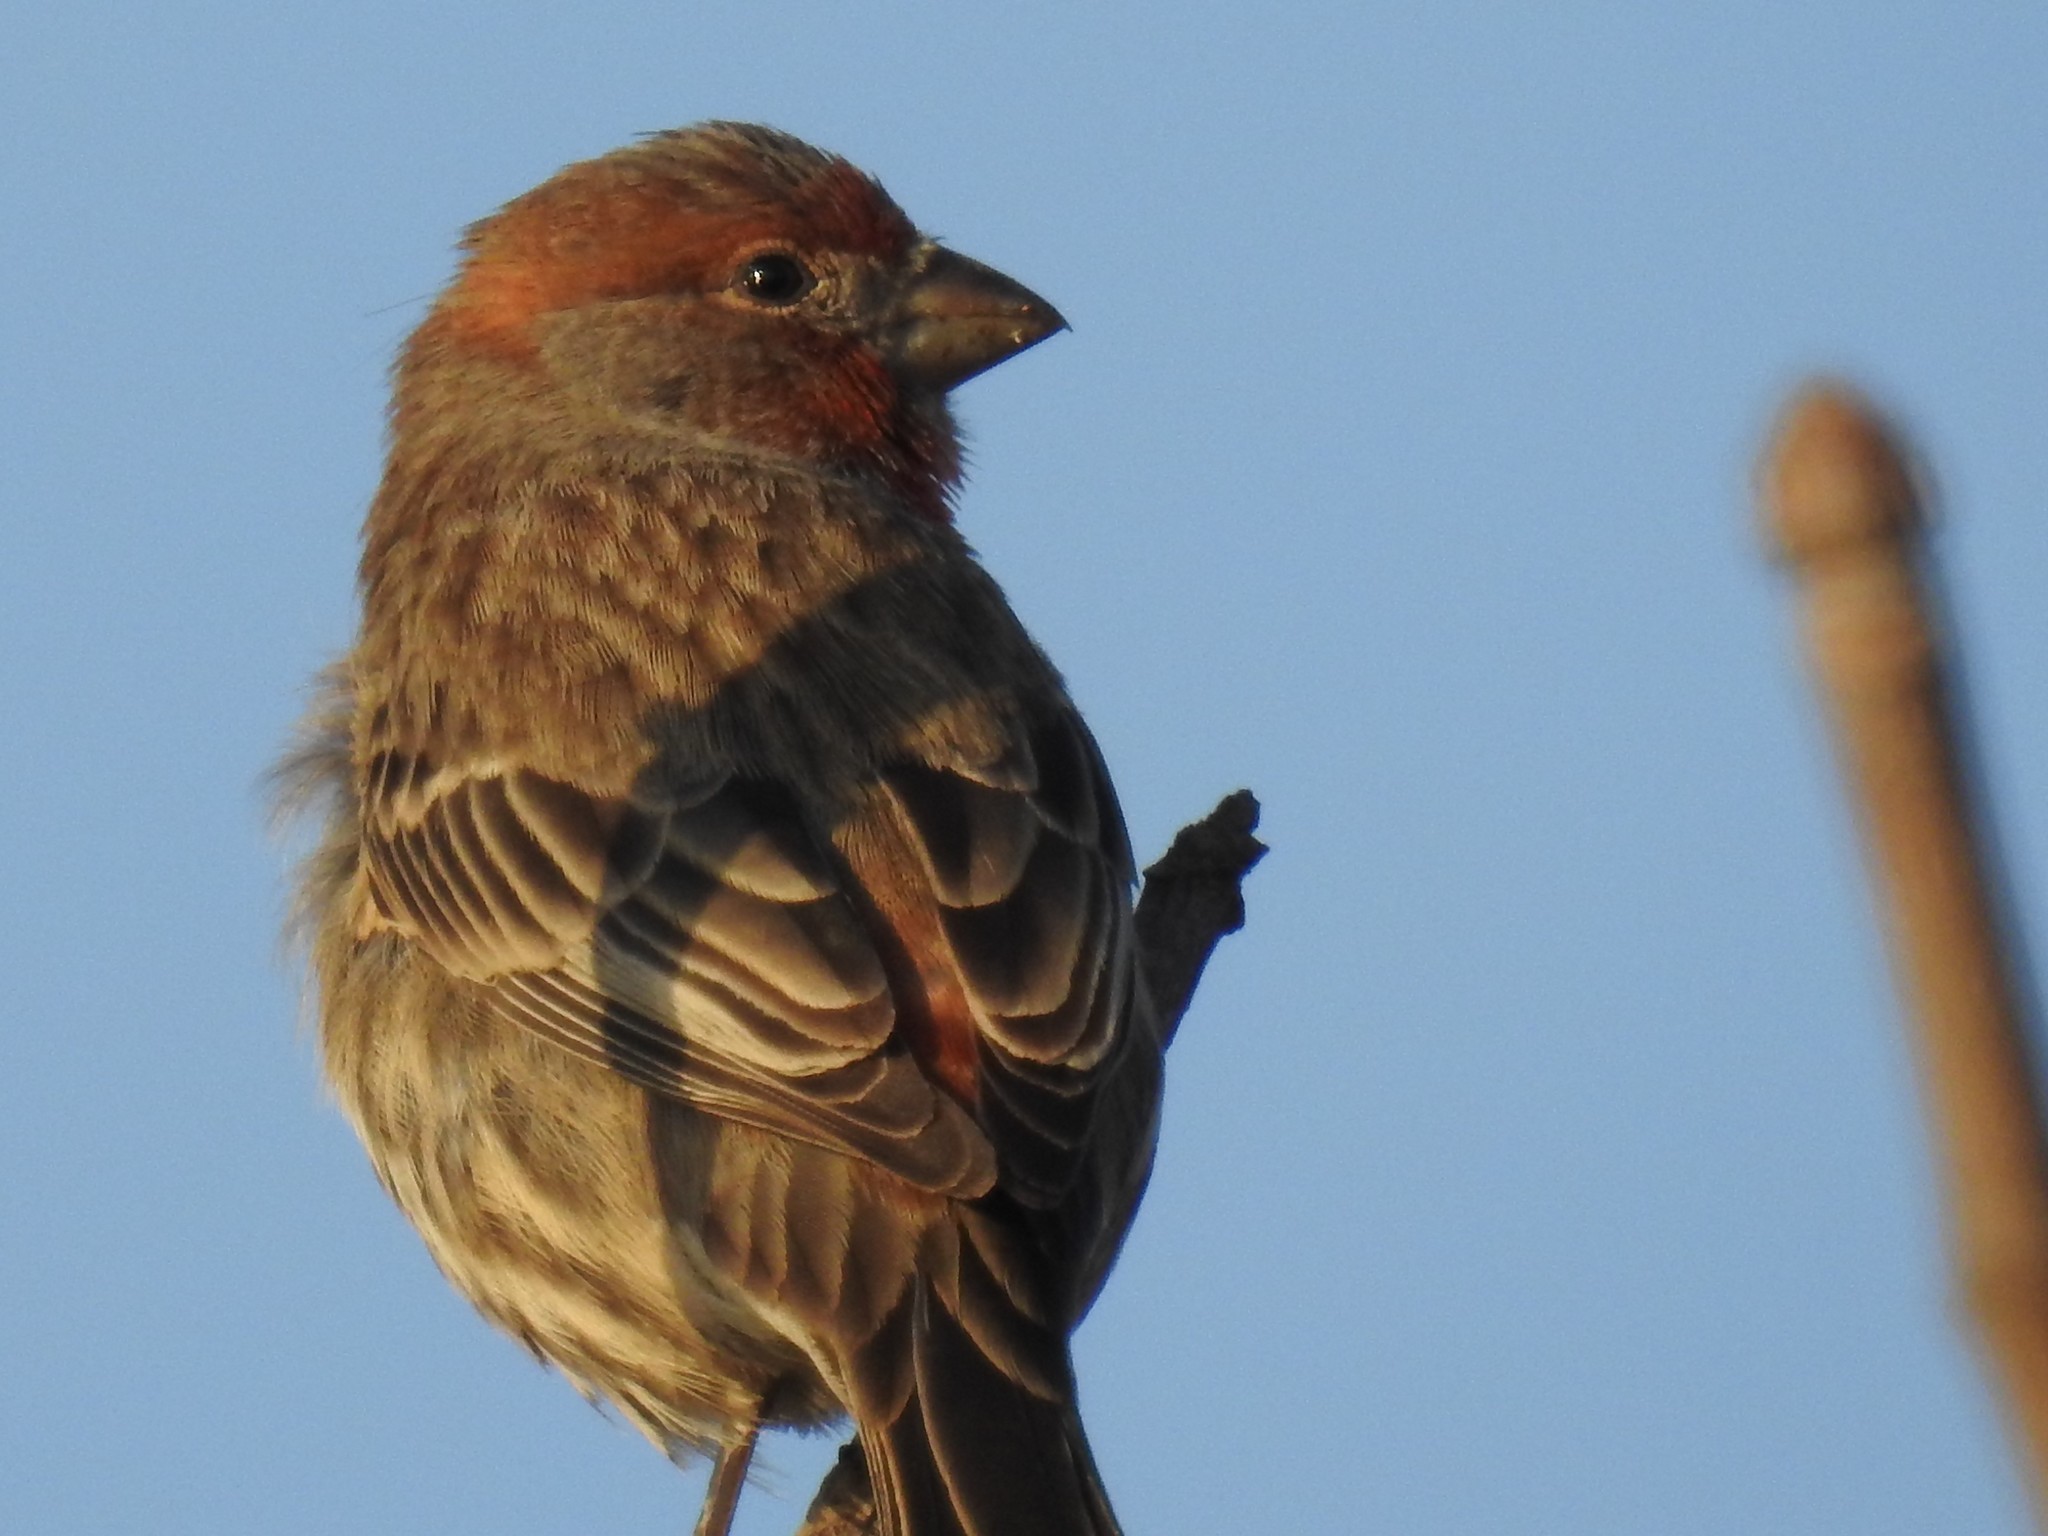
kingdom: Animalia
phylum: Chordata
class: Aves
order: Passeriformes
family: Fringillidae
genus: Haemorhous
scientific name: Haemorhous mexicanus
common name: House finch
